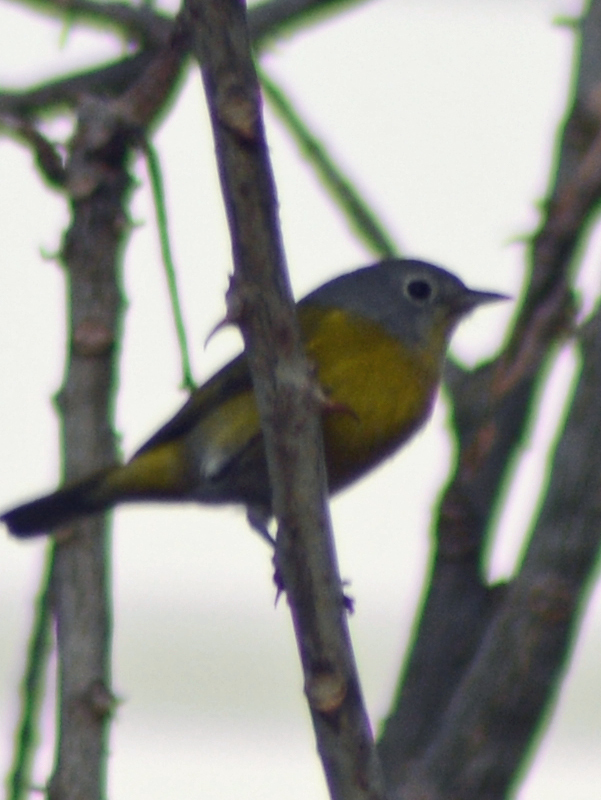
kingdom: Animalia
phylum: Chordata
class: Aves
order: Passeriformes
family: Parulidae
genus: Leiothlypis
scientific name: Leiothlypis ruficapilla
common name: Nashville warbler
